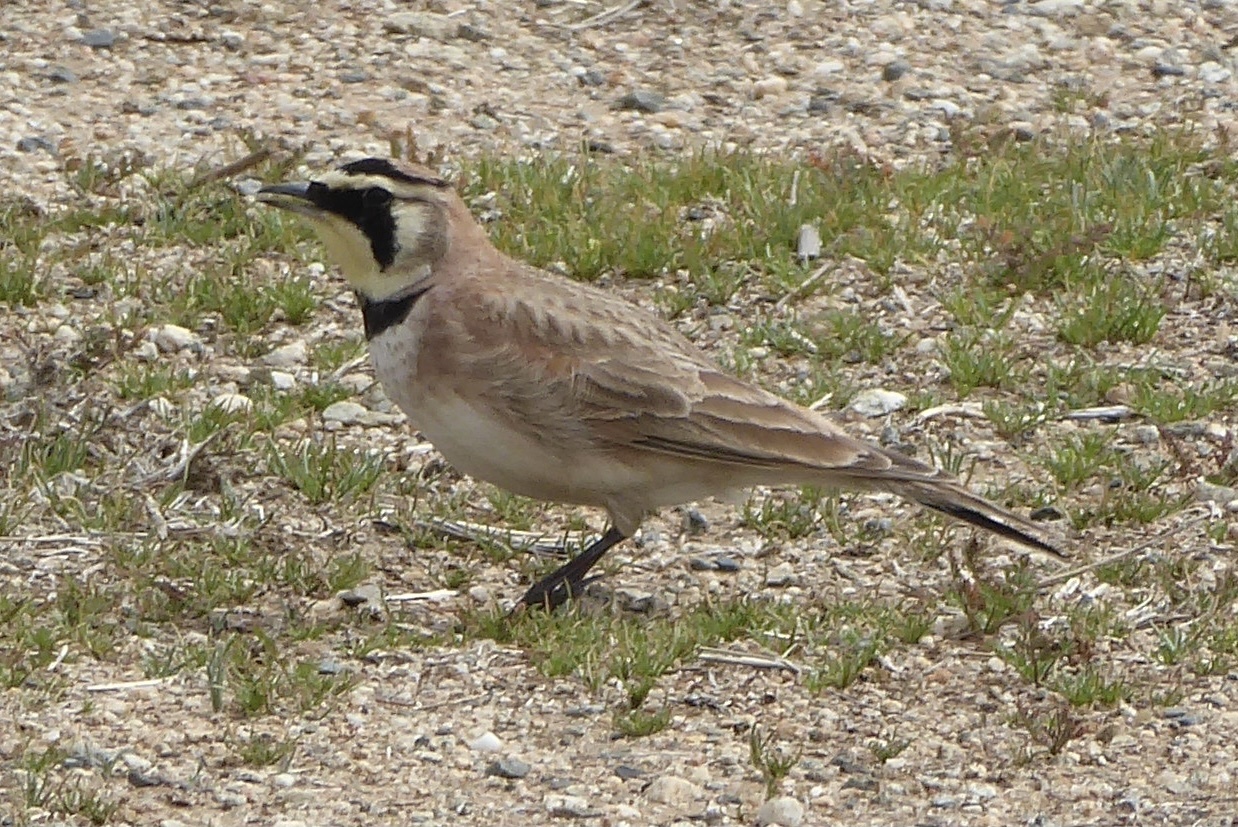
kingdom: Animalia
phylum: Chordata
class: Aves
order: Passeriformes
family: Alaudidae
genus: Eremophila
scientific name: Eremophila alpestris
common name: Horned lark
